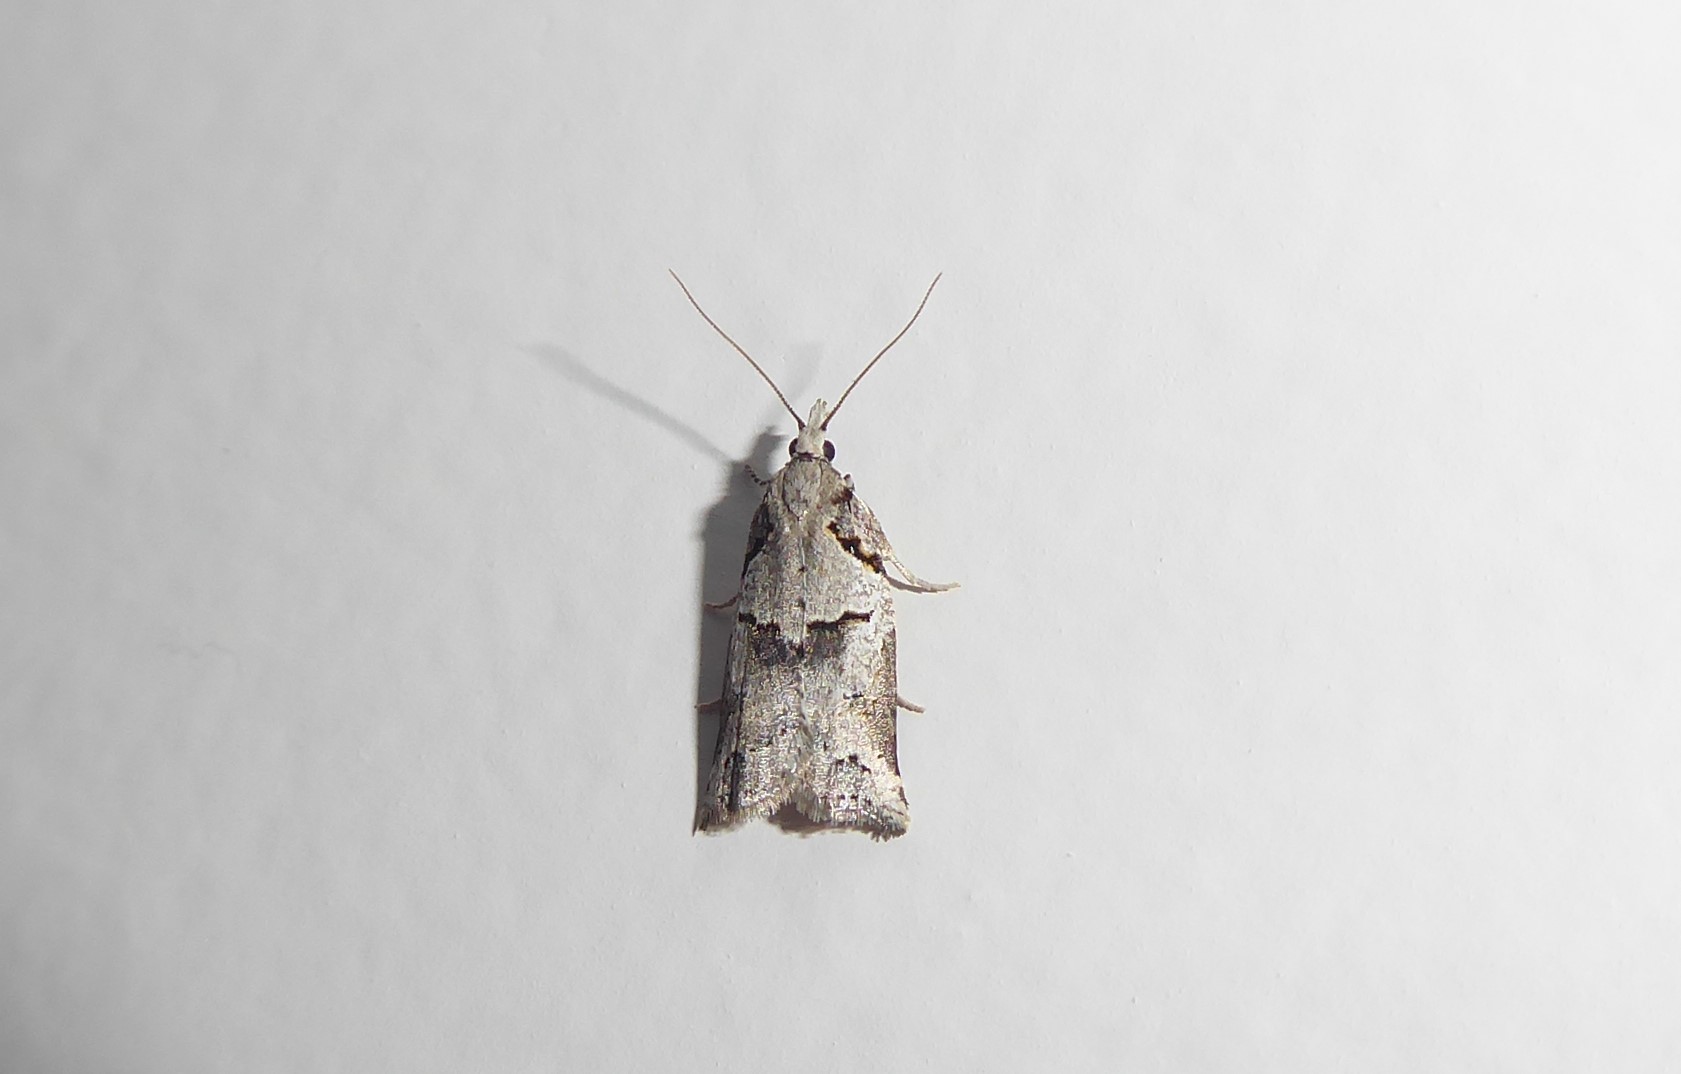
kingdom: Animalia
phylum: Arthropoda
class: Insecta
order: Lepidoptera
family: Tortricidae
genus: Harmologa
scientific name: Harmologa amplexana
